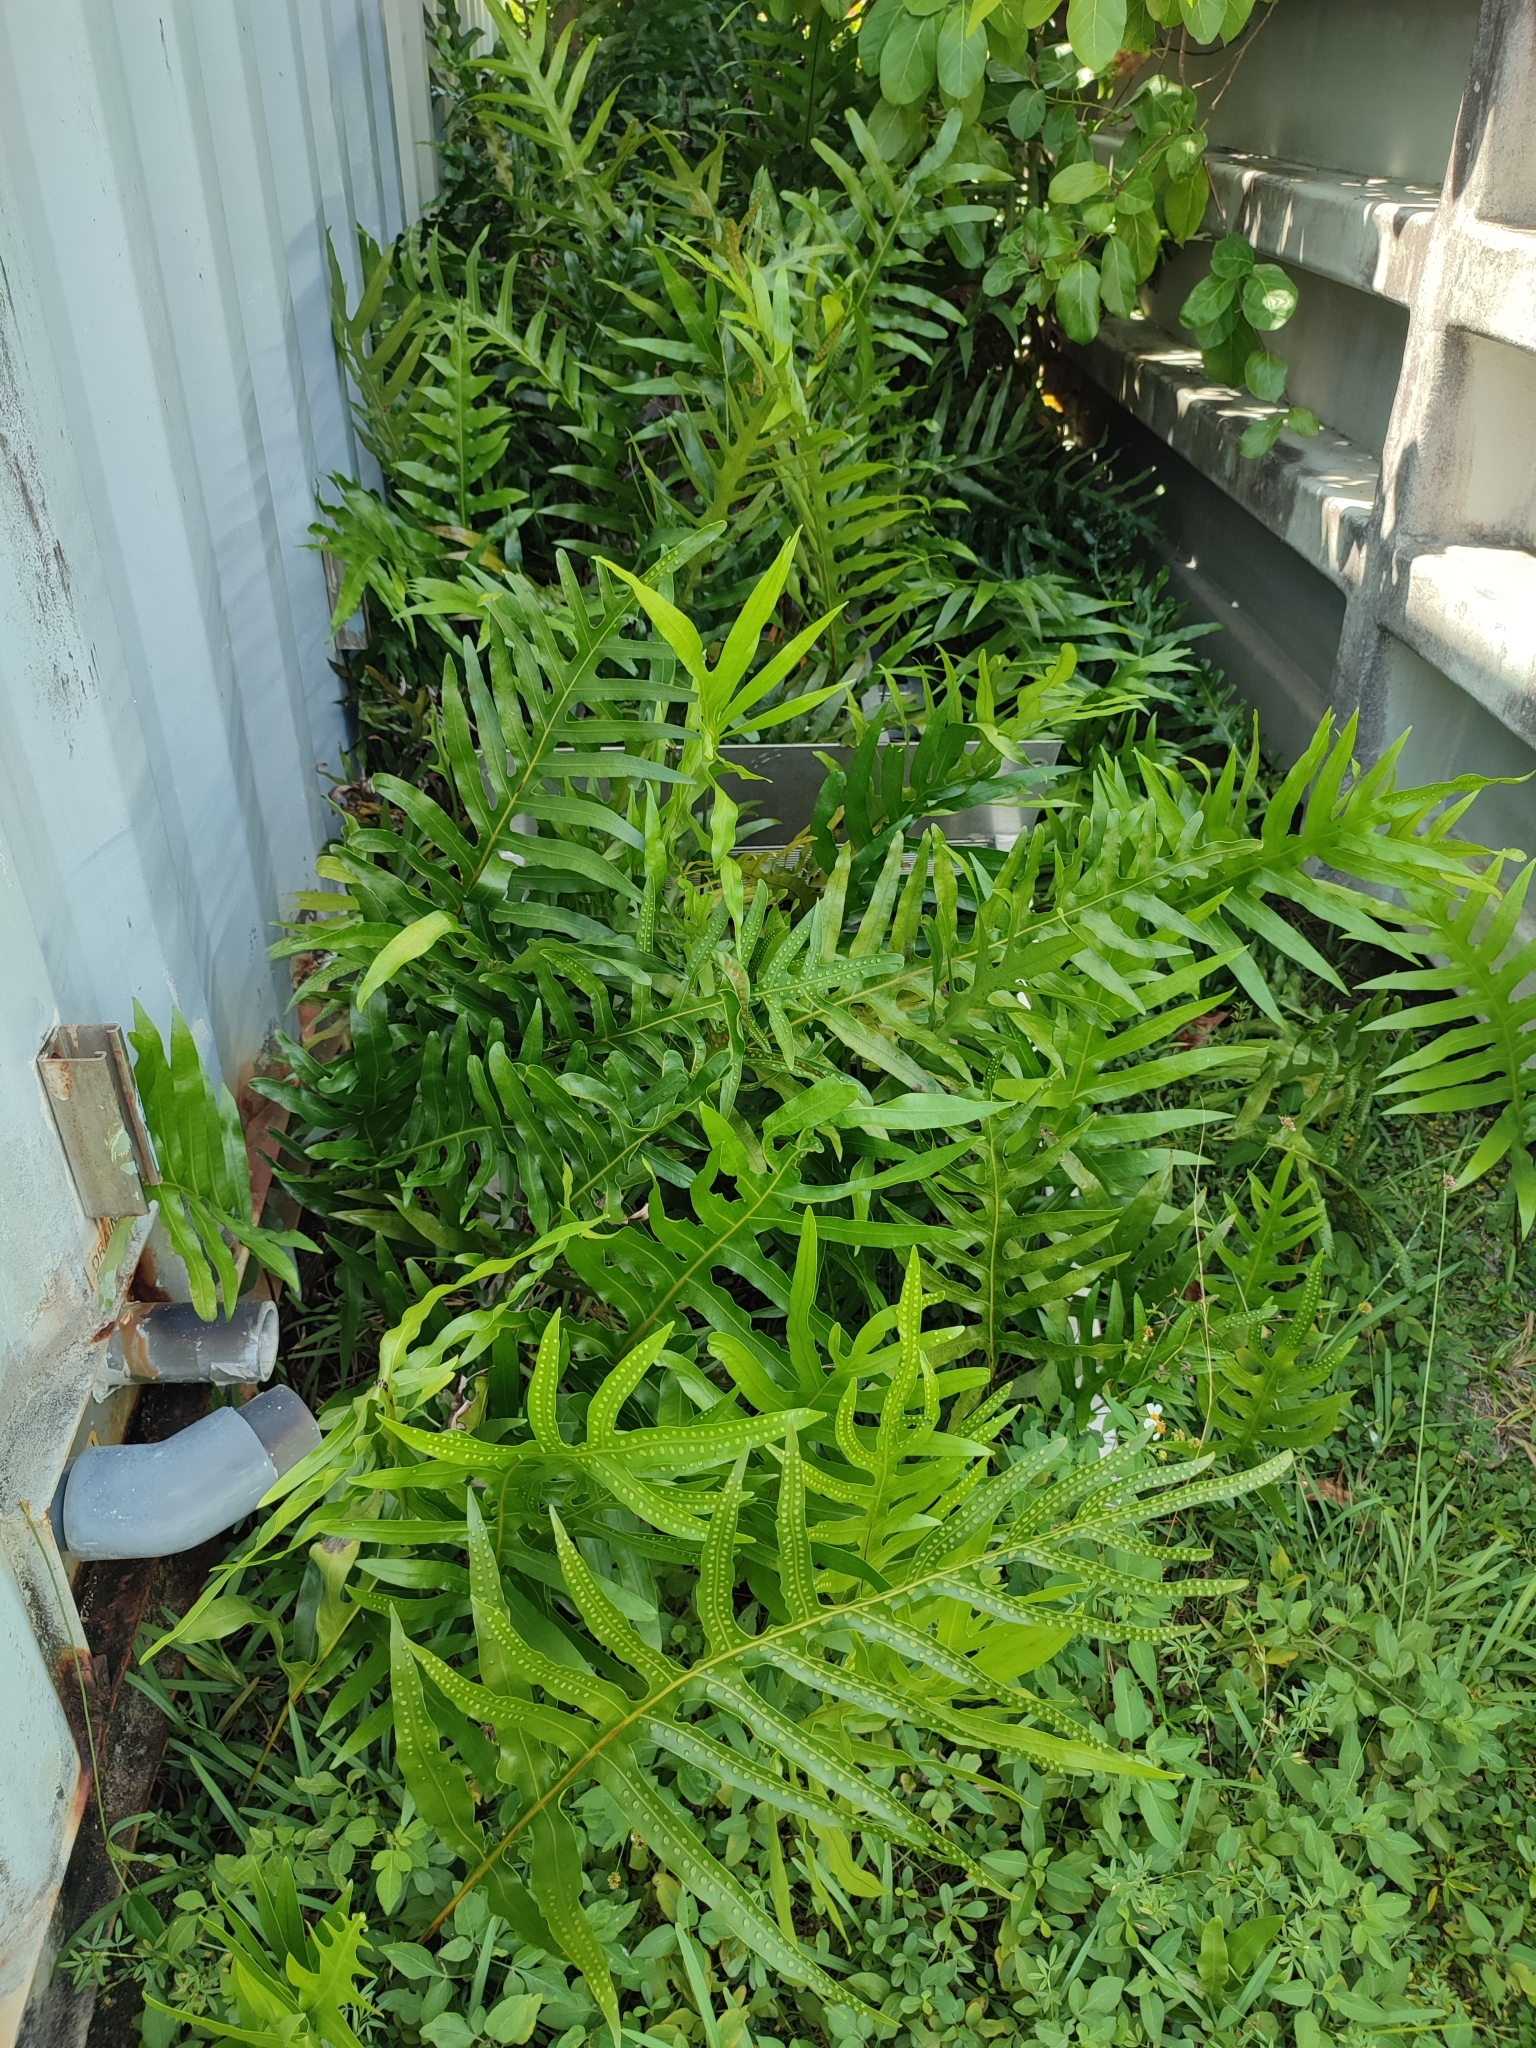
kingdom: Plantae
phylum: Tracheophyta
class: Polypodiopsida
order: Polypodiales
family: Polypodiaceae
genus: Microsorum
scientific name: Microsorum scolopendria
